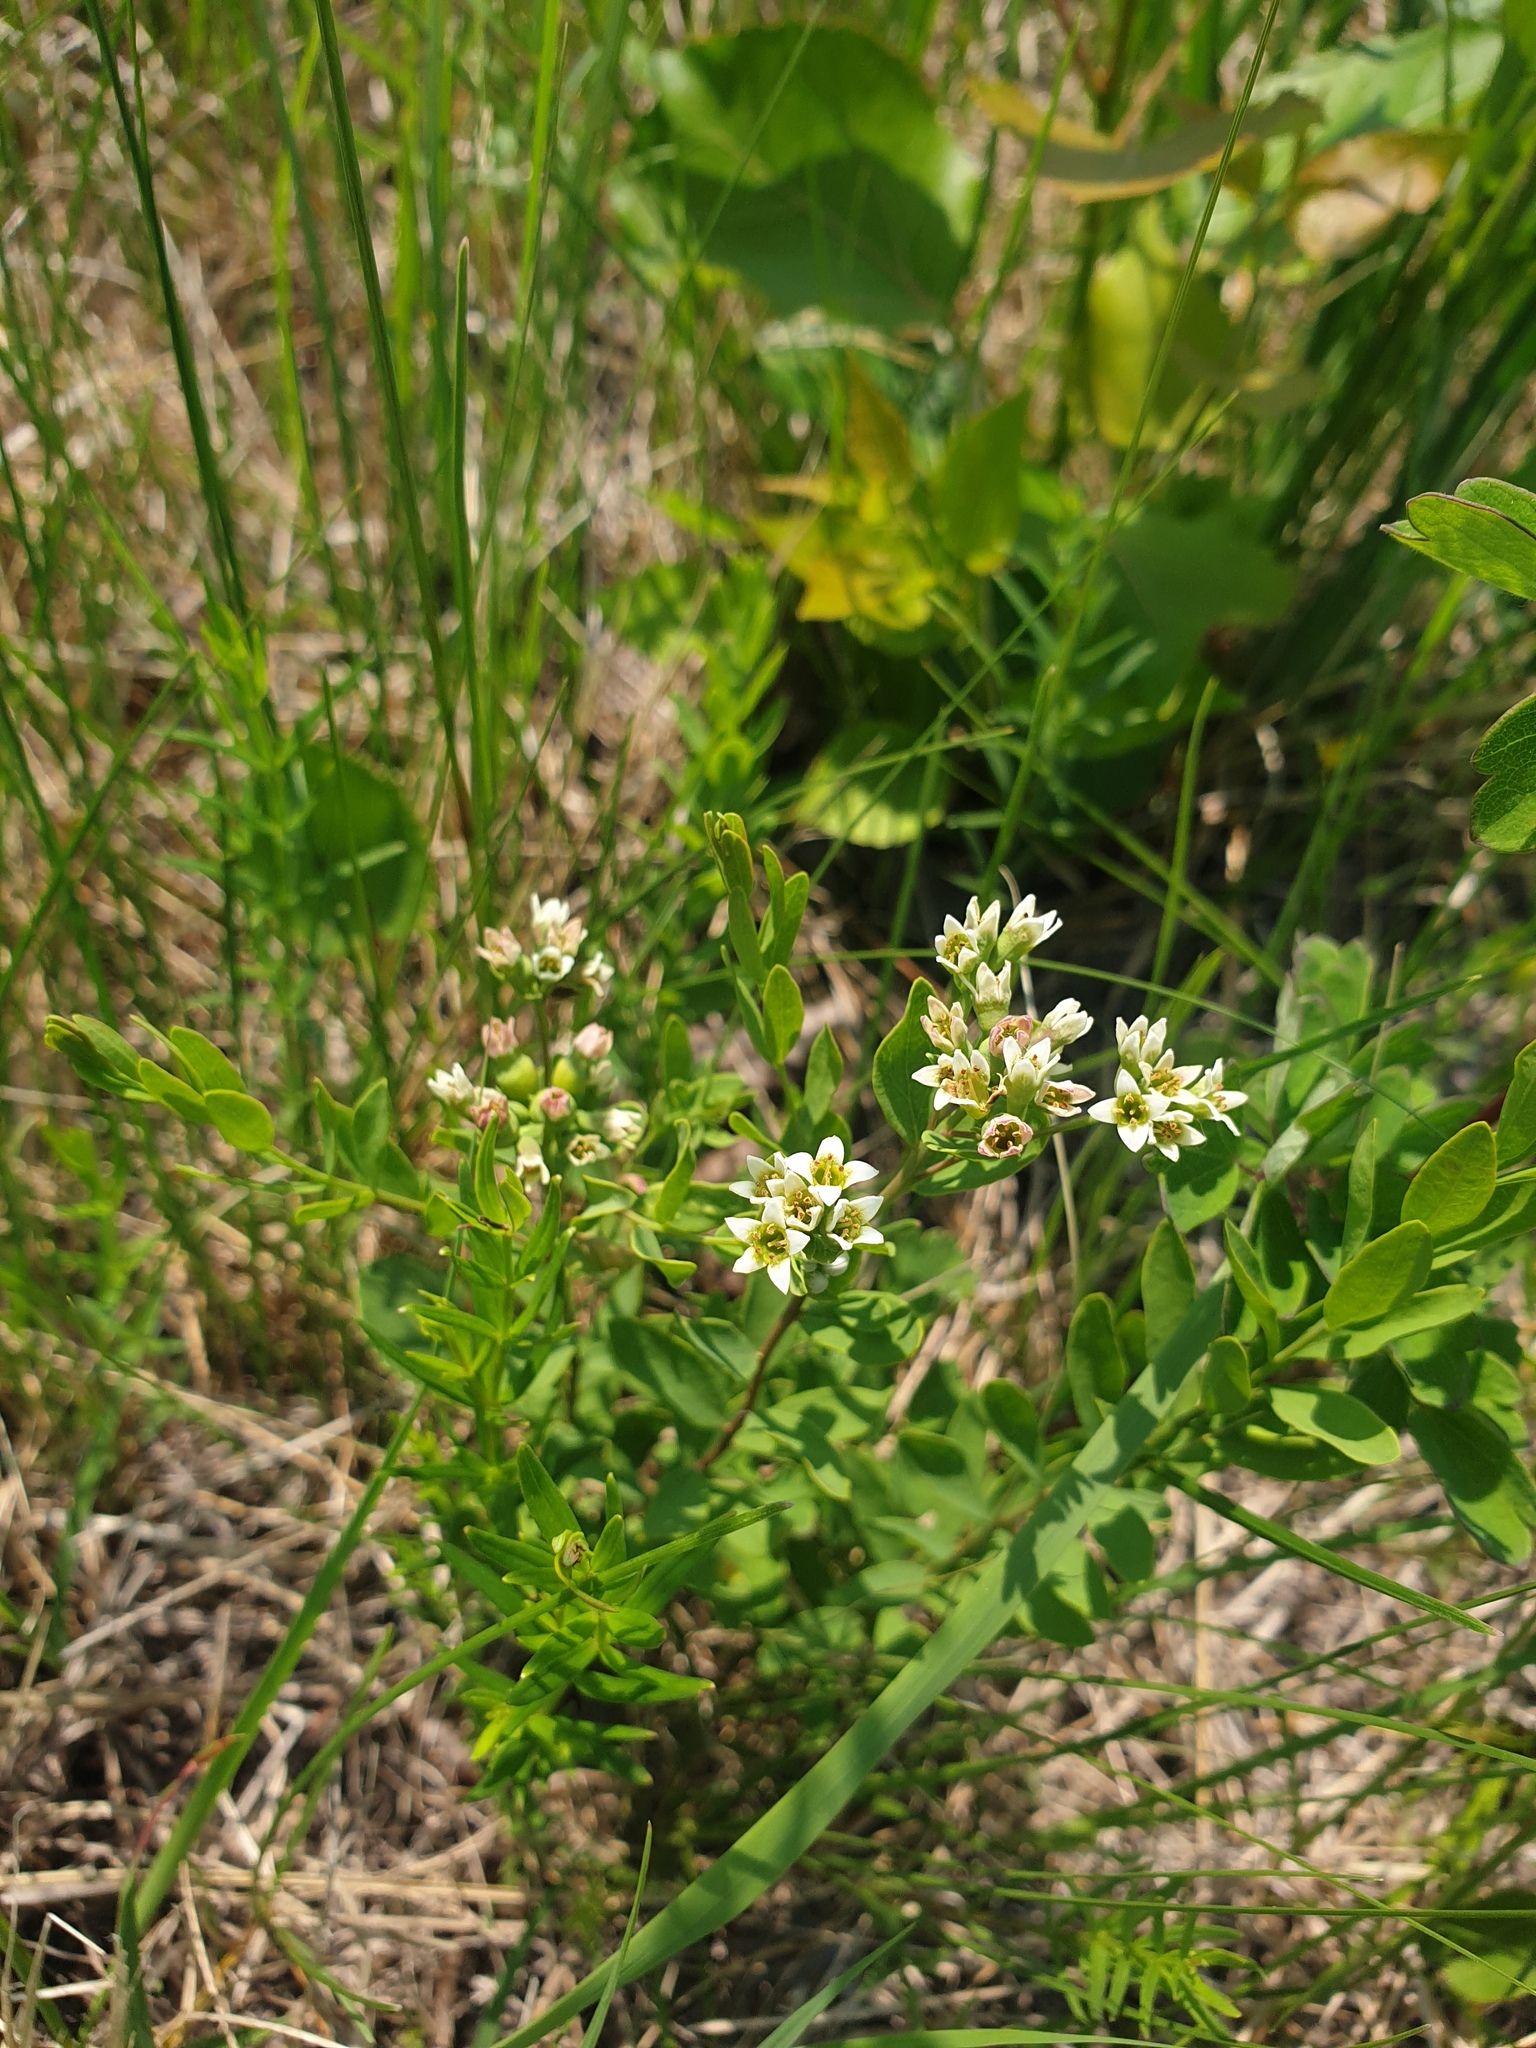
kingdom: Plantae
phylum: Tracheophyta
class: Magnoliopsida
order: Santalales
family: Comandraceae
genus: Comandra
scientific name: Comandra umbellata
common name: Bastard toadflax
